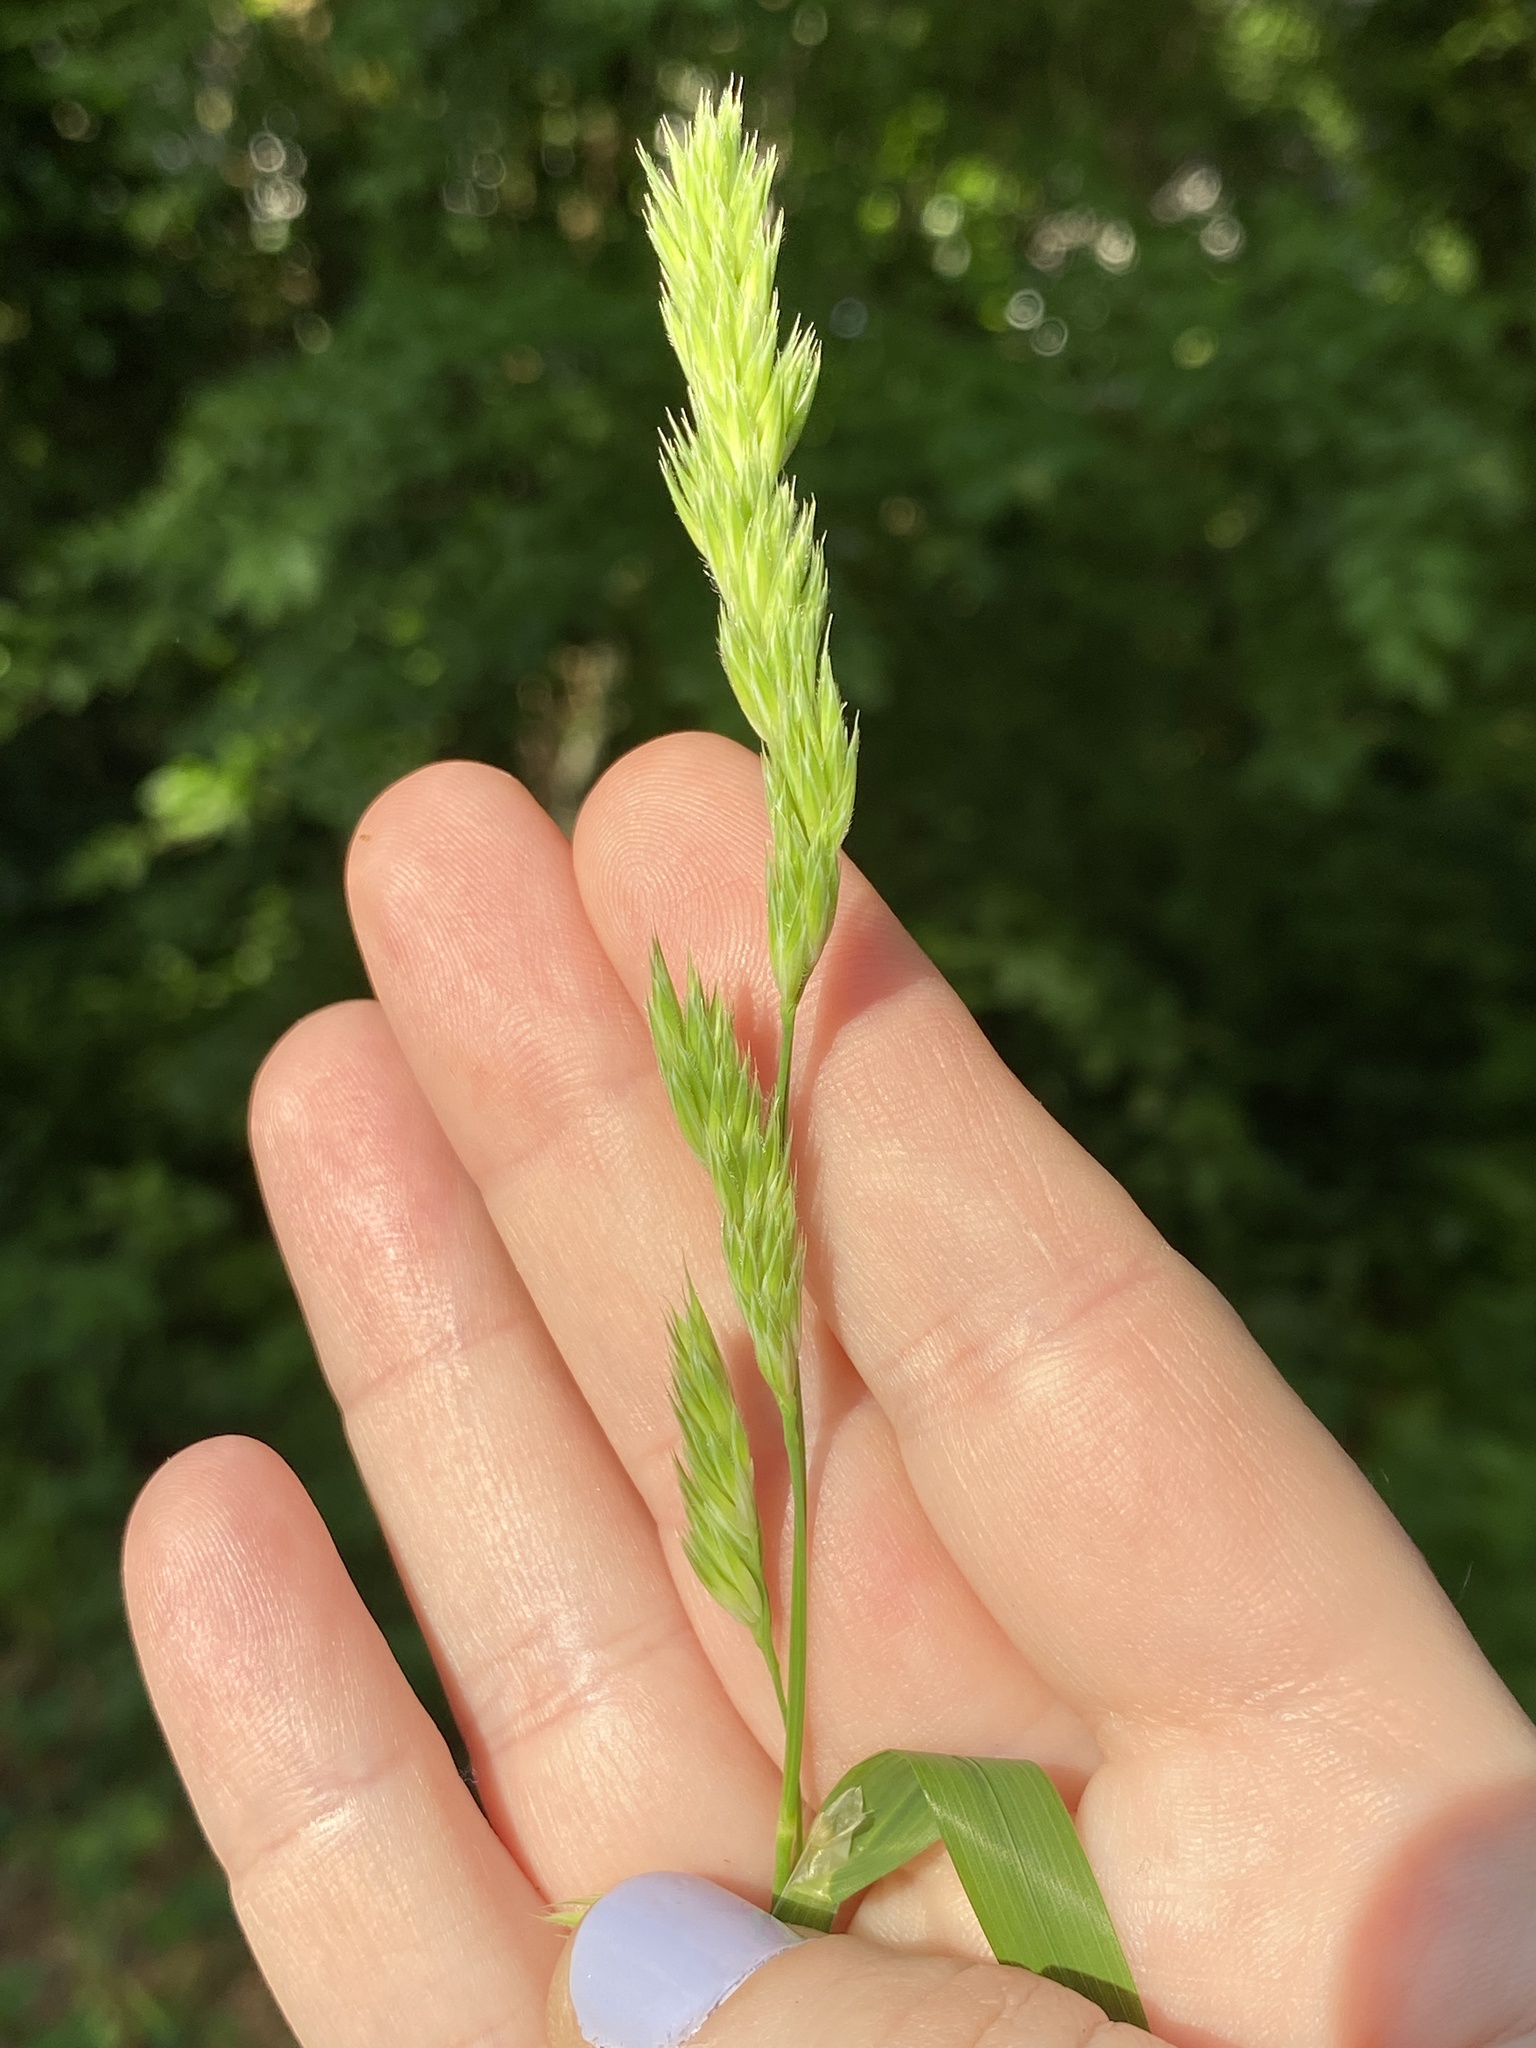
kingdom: Plantae
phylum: Tracheophyta
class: Liliopsida
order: Poales
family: Poaceae
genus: Dactylis
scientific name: Dactylis glomerata
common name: Orchardgrass
